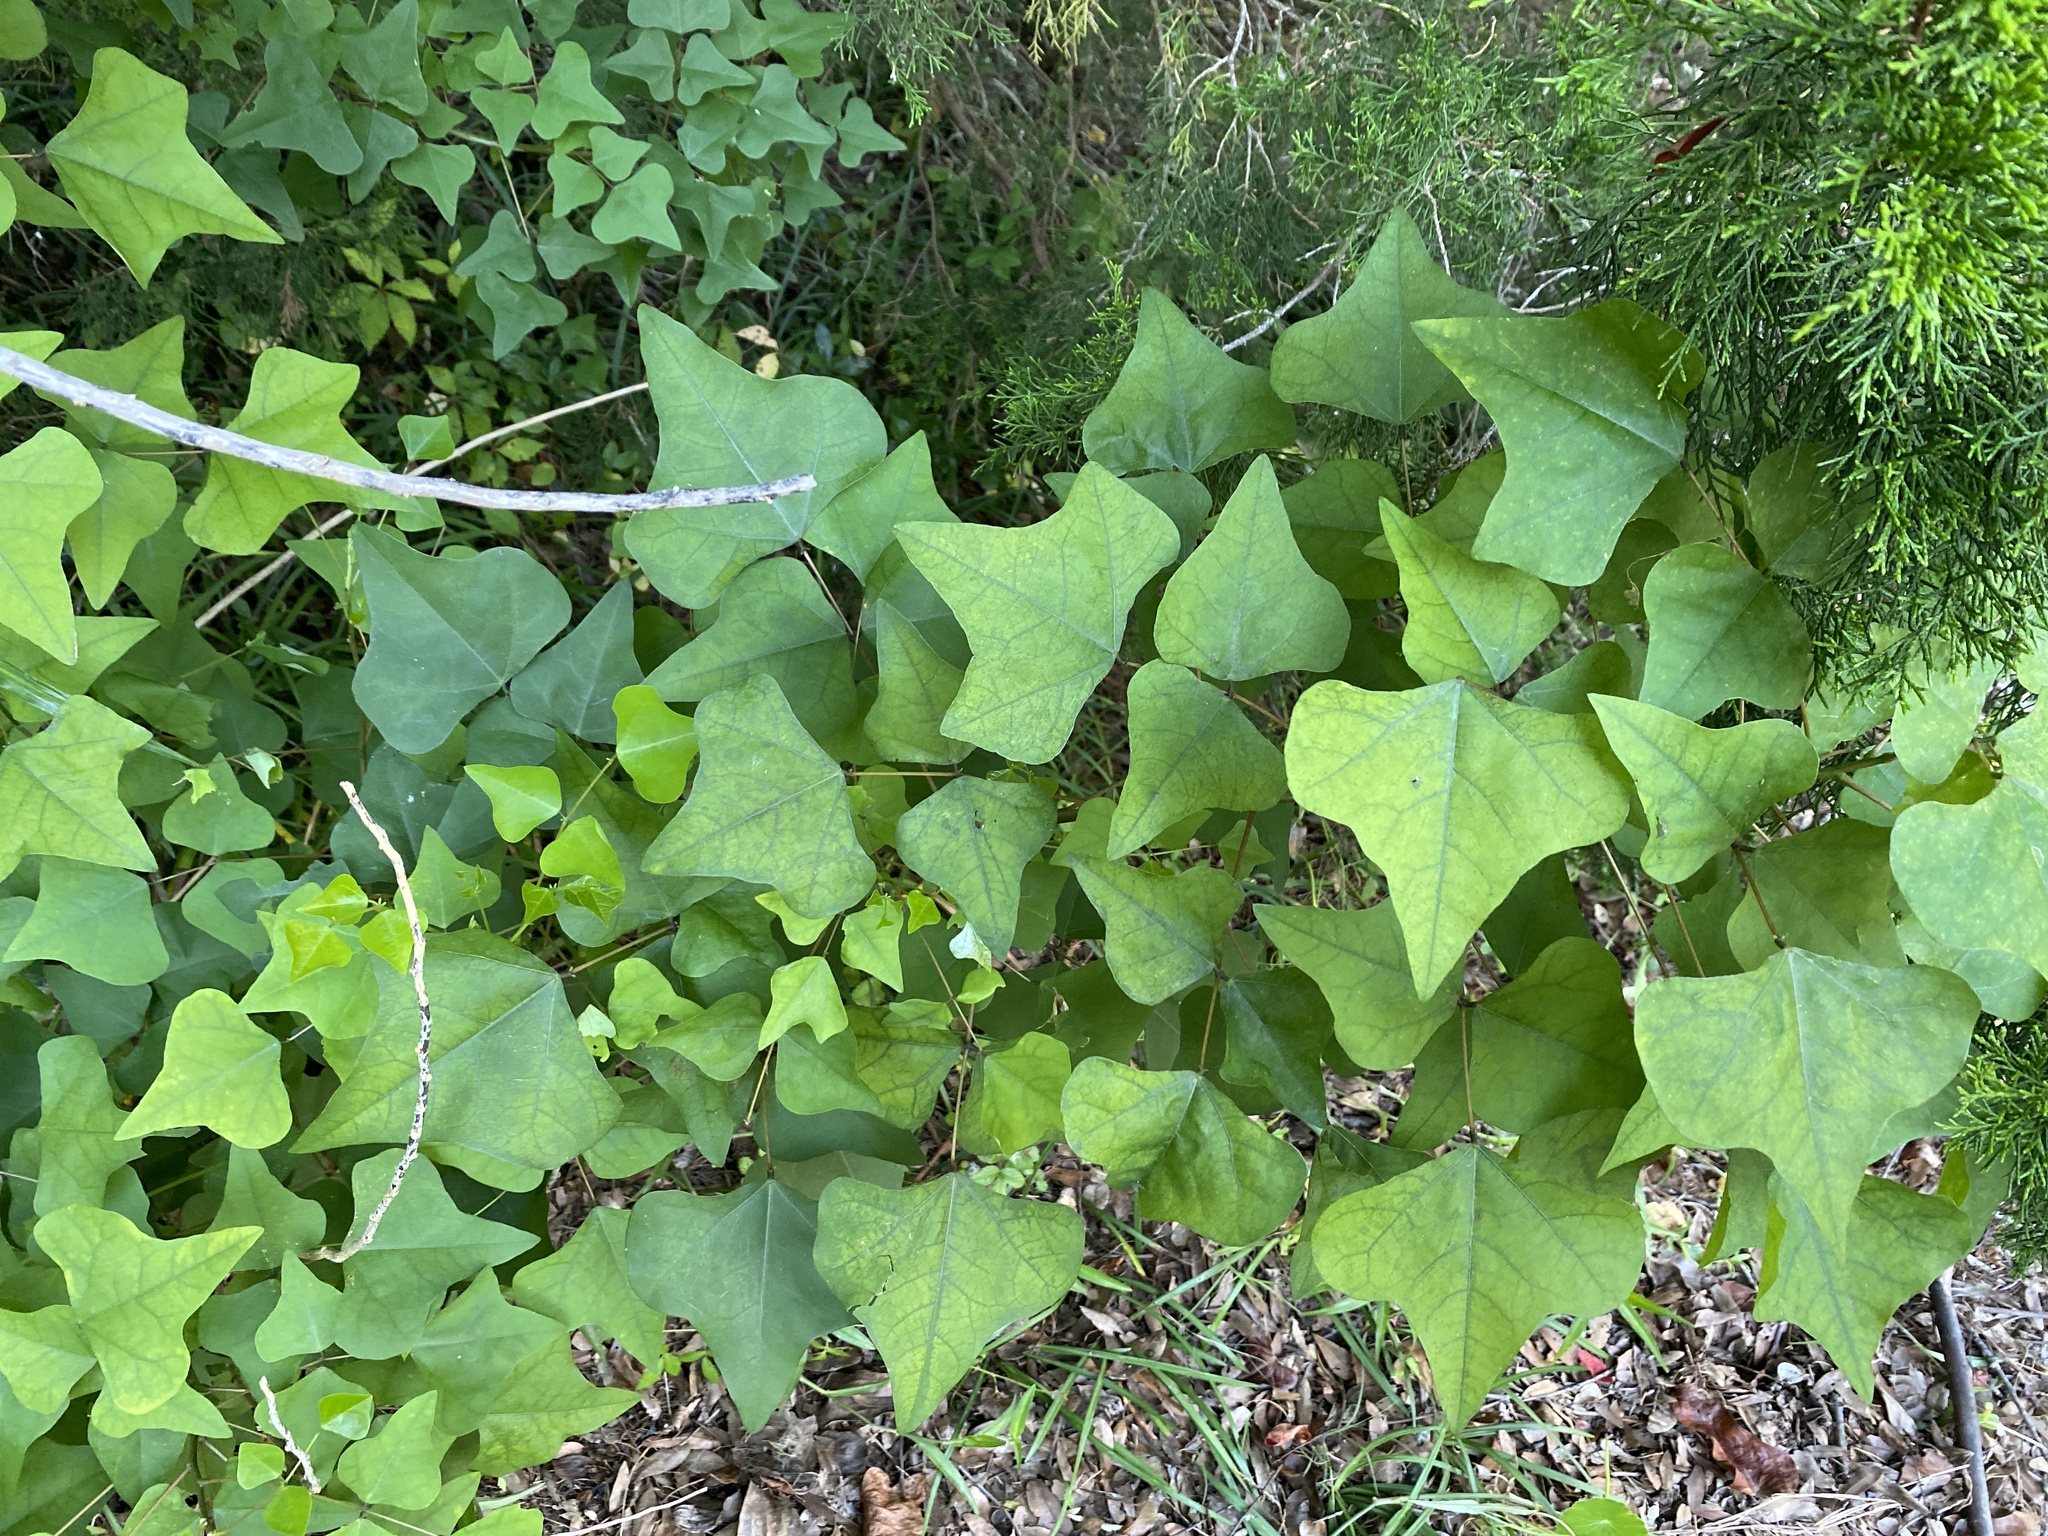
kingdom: Plantae
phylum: Tracheophyta
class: Magnoliopsida
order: Fabales
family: Fabaceae
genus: Erythrina
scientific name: Erythrina herbacea
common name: Coral-bean
